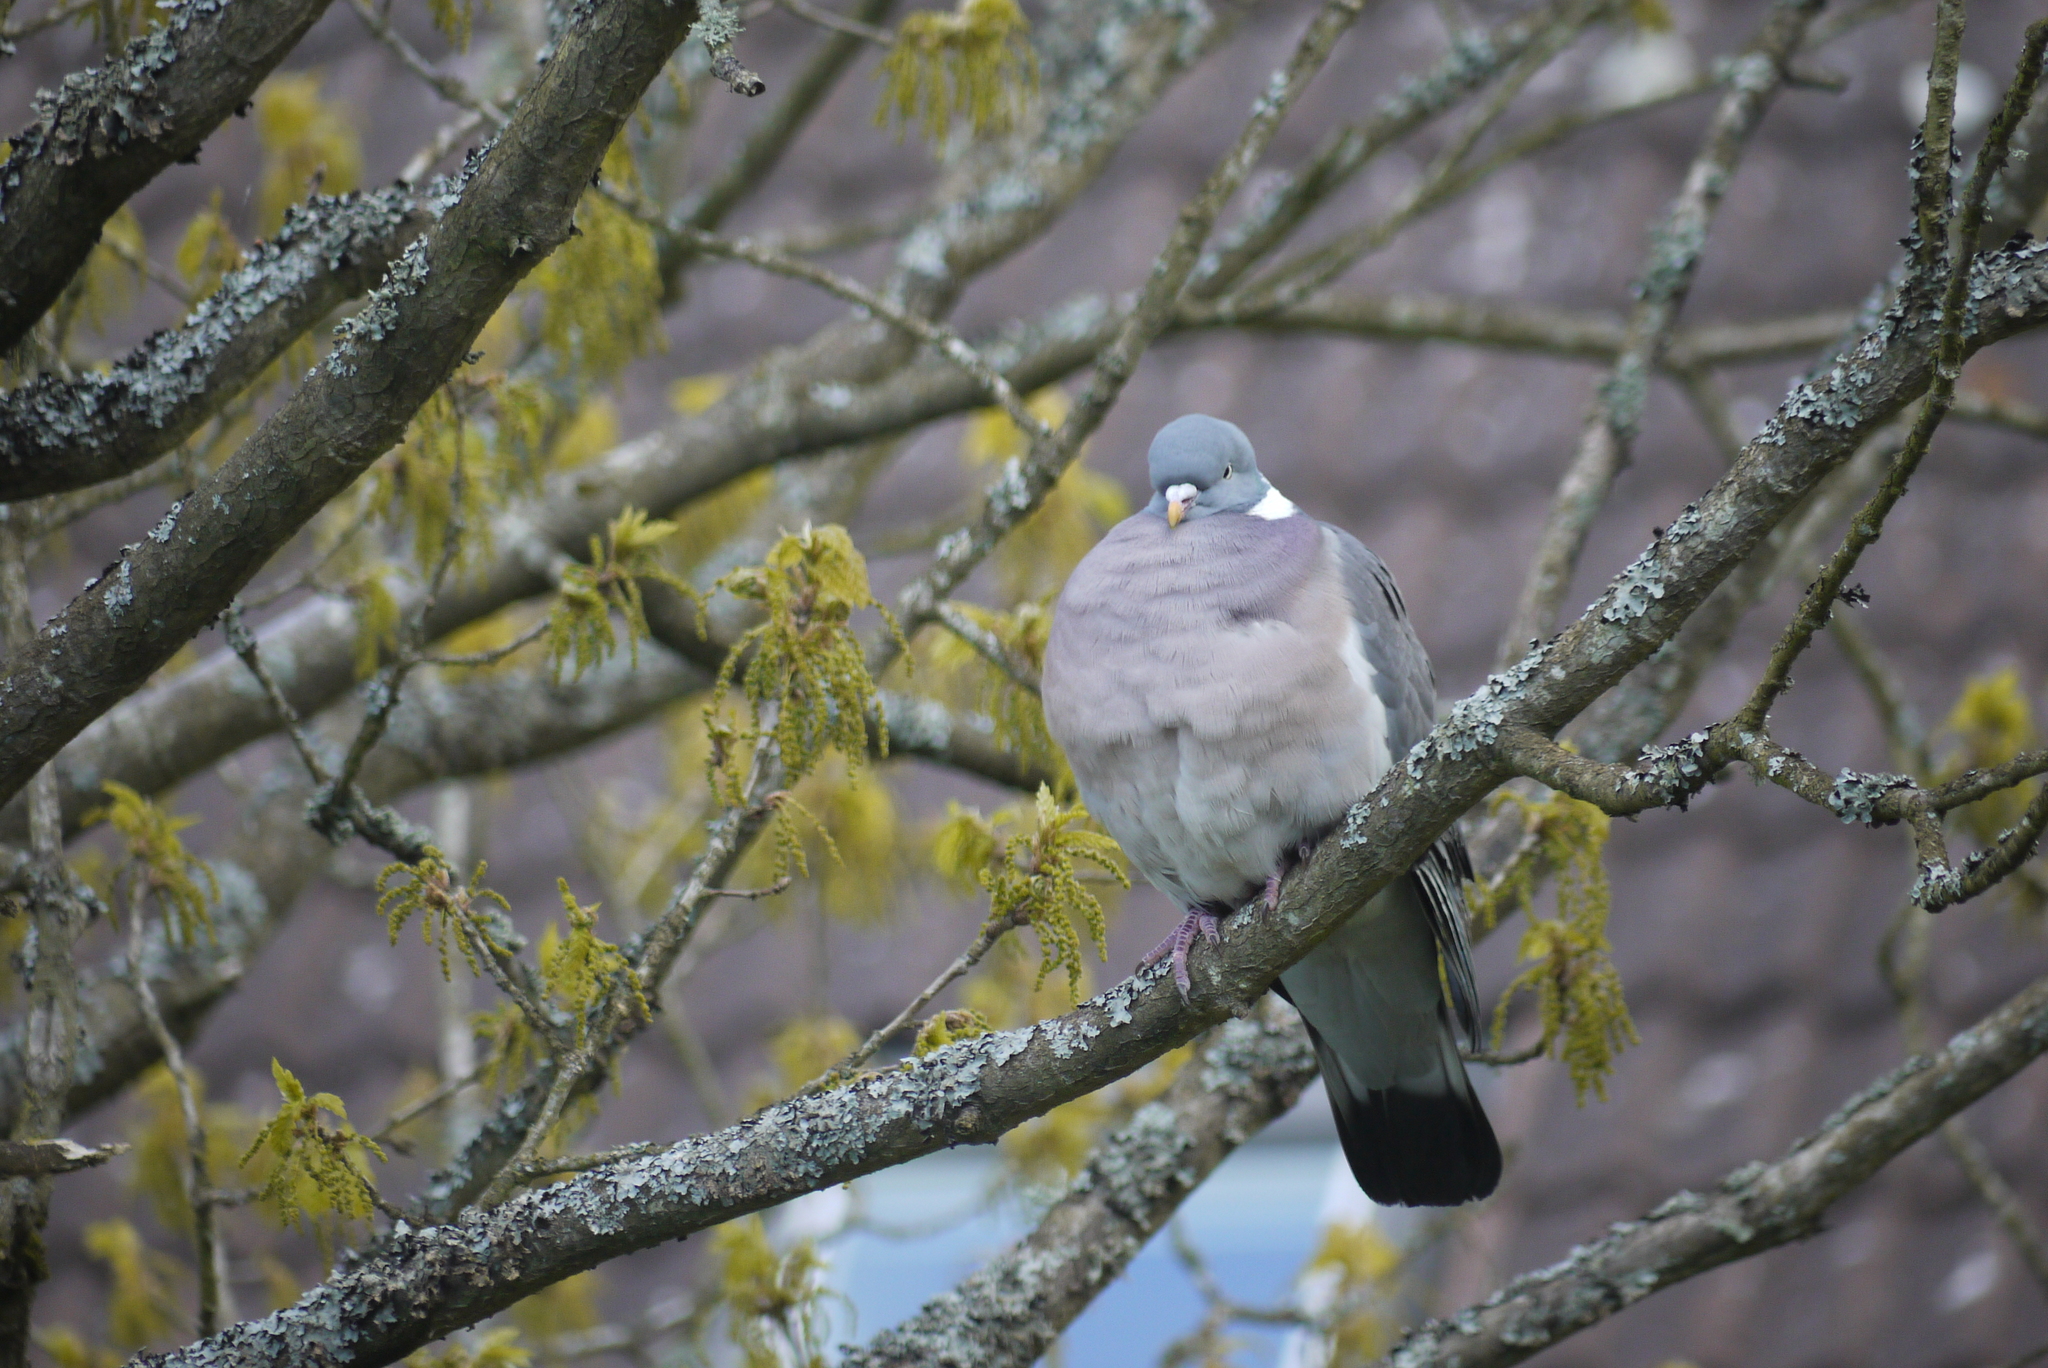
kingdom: Animalia
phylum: Chordata
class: Aves
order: Columbiformes
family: Columbidae
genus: Columba
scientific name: Columba palumbus
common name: Common wood pigeon
